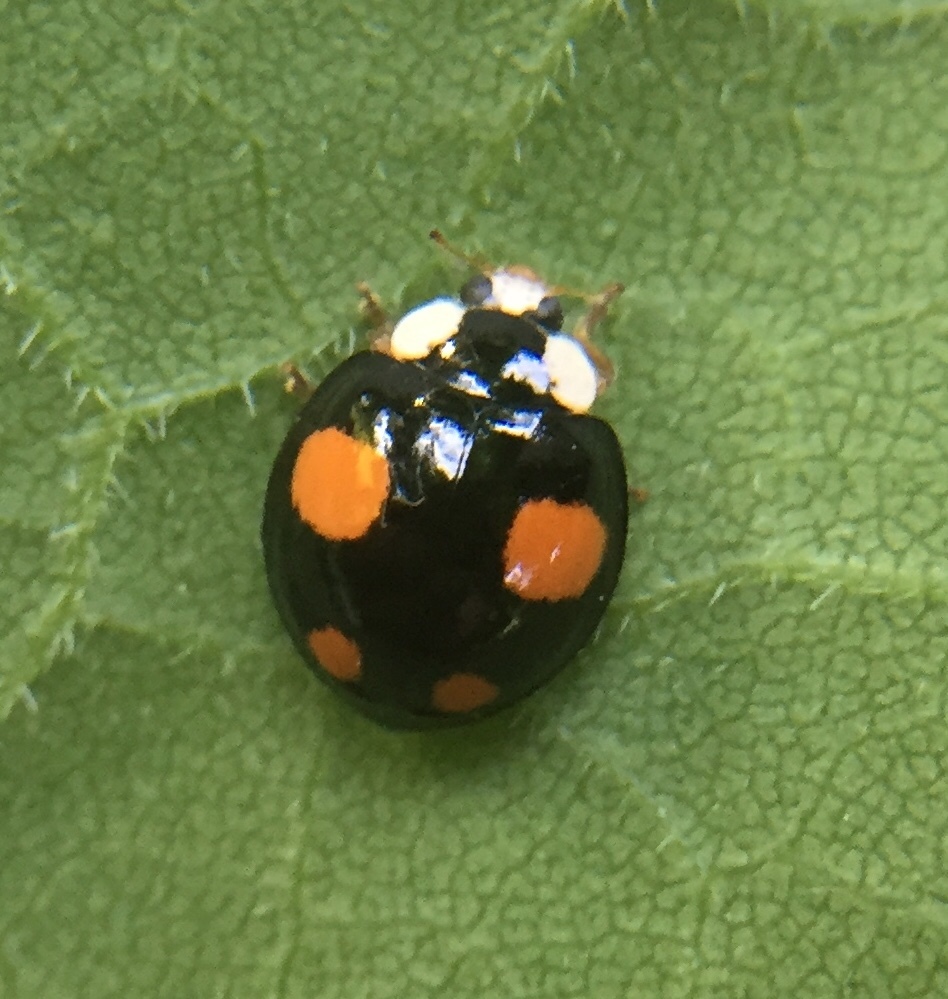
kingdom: Animalia
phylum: Arthropoda
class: Insecta
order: Coleoptera
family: Coccinellidae
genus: Harmonia
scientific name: Harmonia axyridis
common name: Harlequin ladybird
